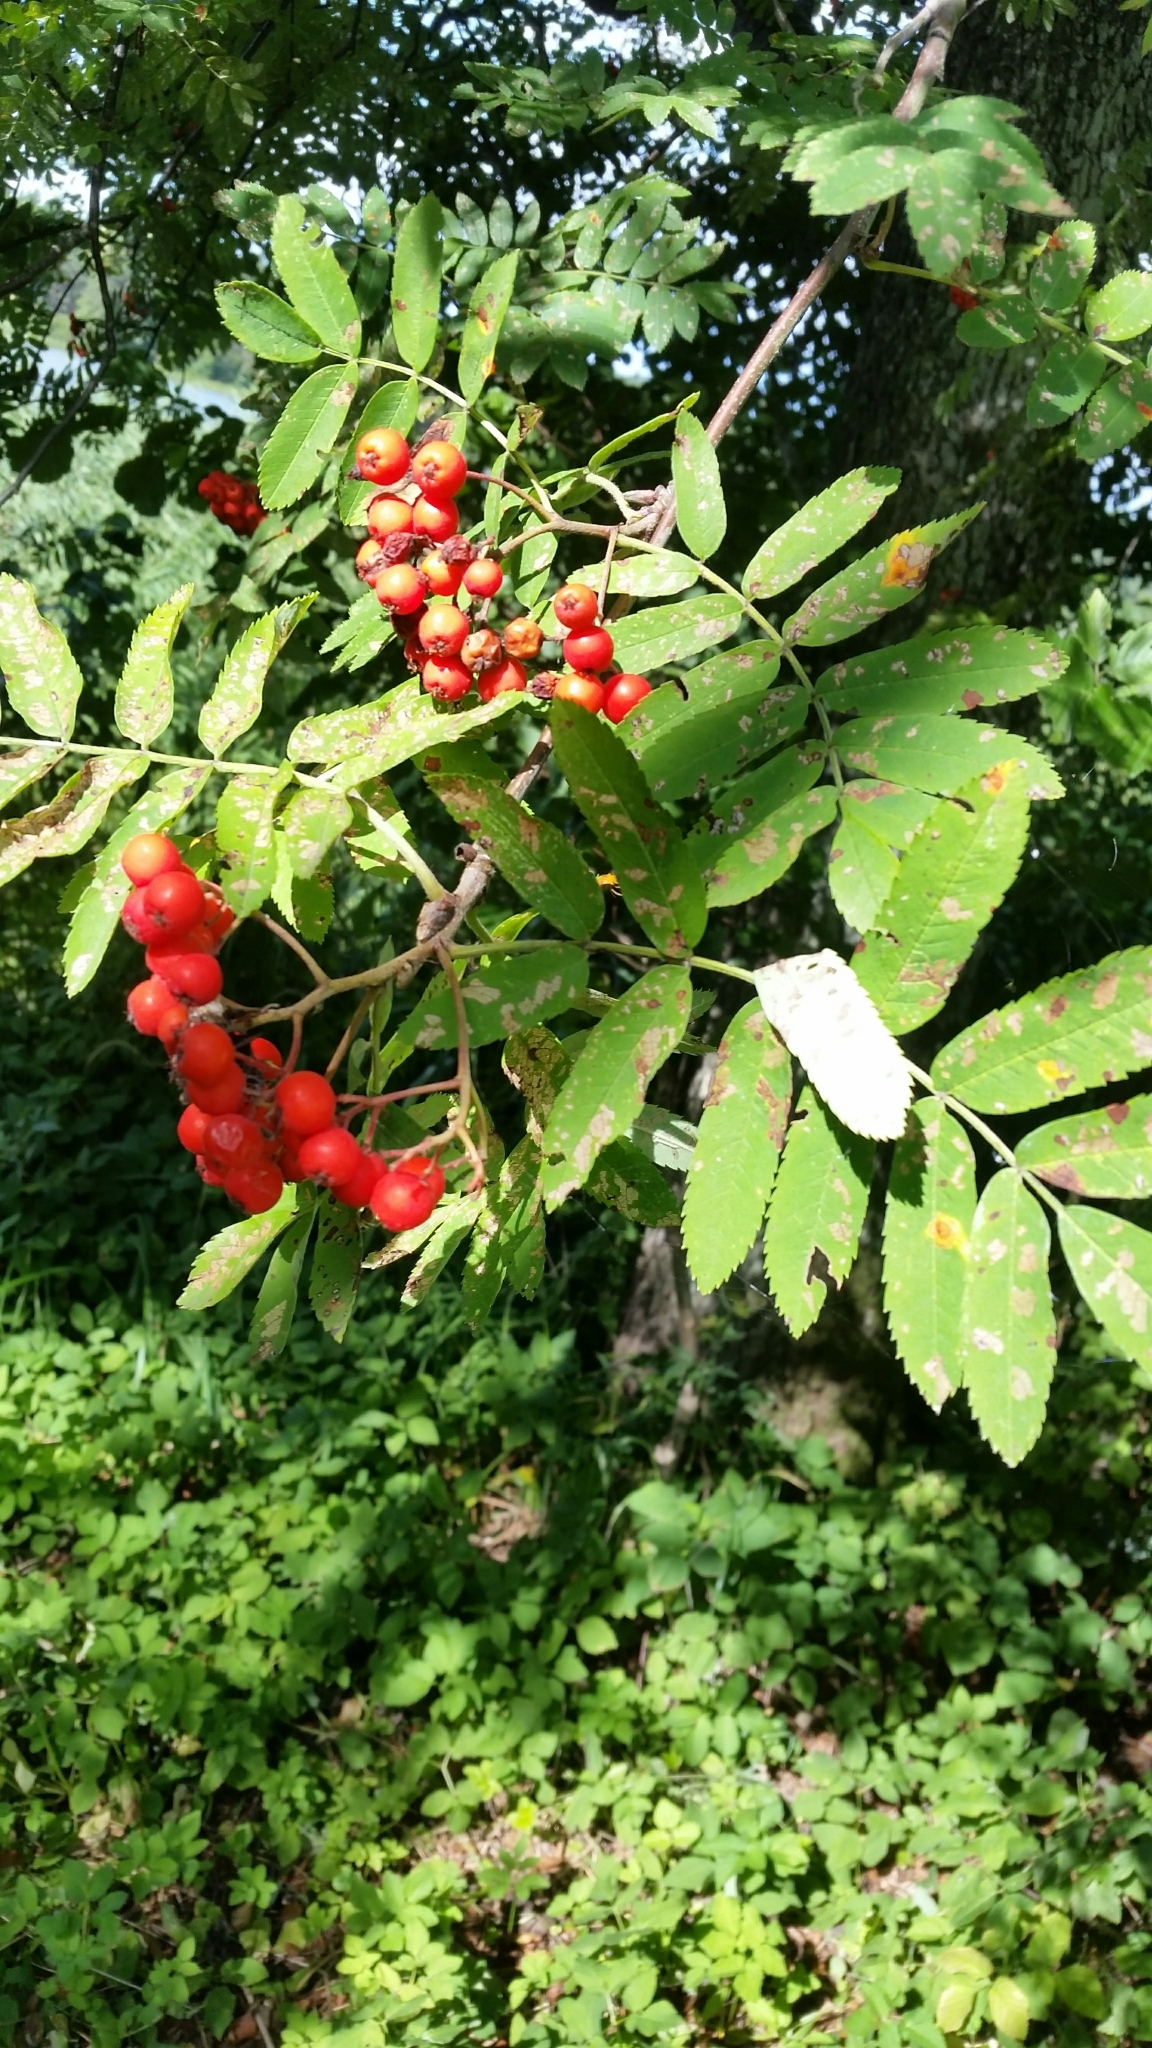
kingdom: Plantae
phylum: Tracheophyta
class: Magnoliopsida
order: Rosales
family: Rosaceae
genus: Sorbus
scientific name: Sorbus aucuparia
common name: Rowan
